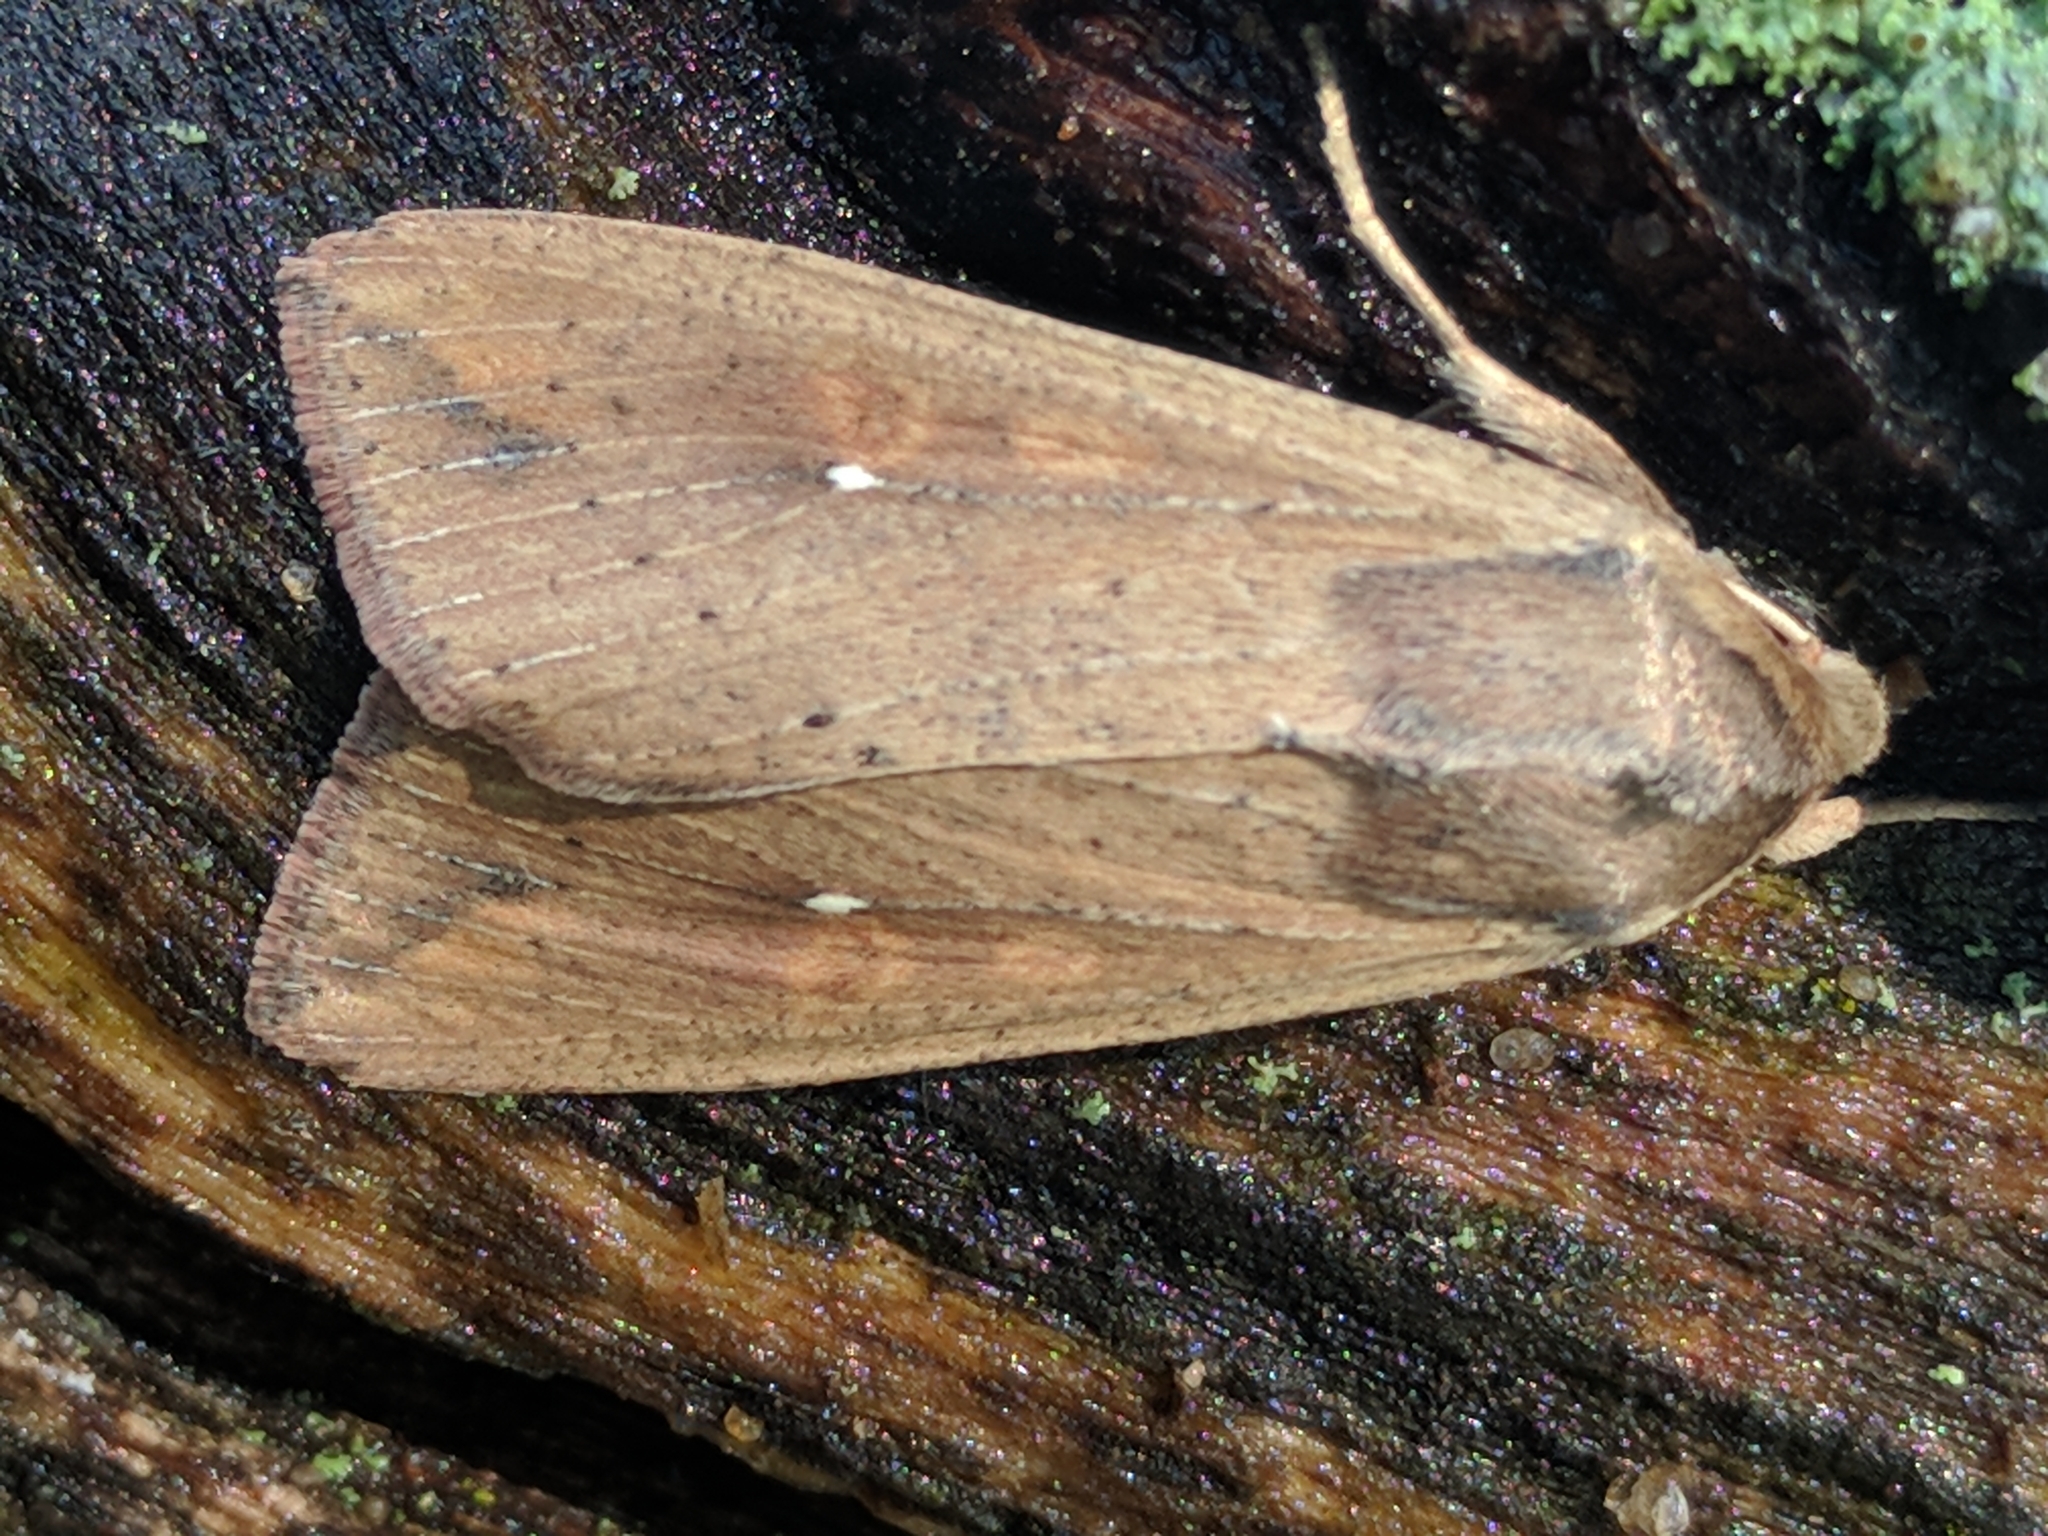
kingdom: Animalia
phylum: Arthropoda
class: Insecta
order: Lepidoptera
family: Noctuidae
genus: Mythimna
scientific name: Mythimna unipuncta
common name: White-speck
